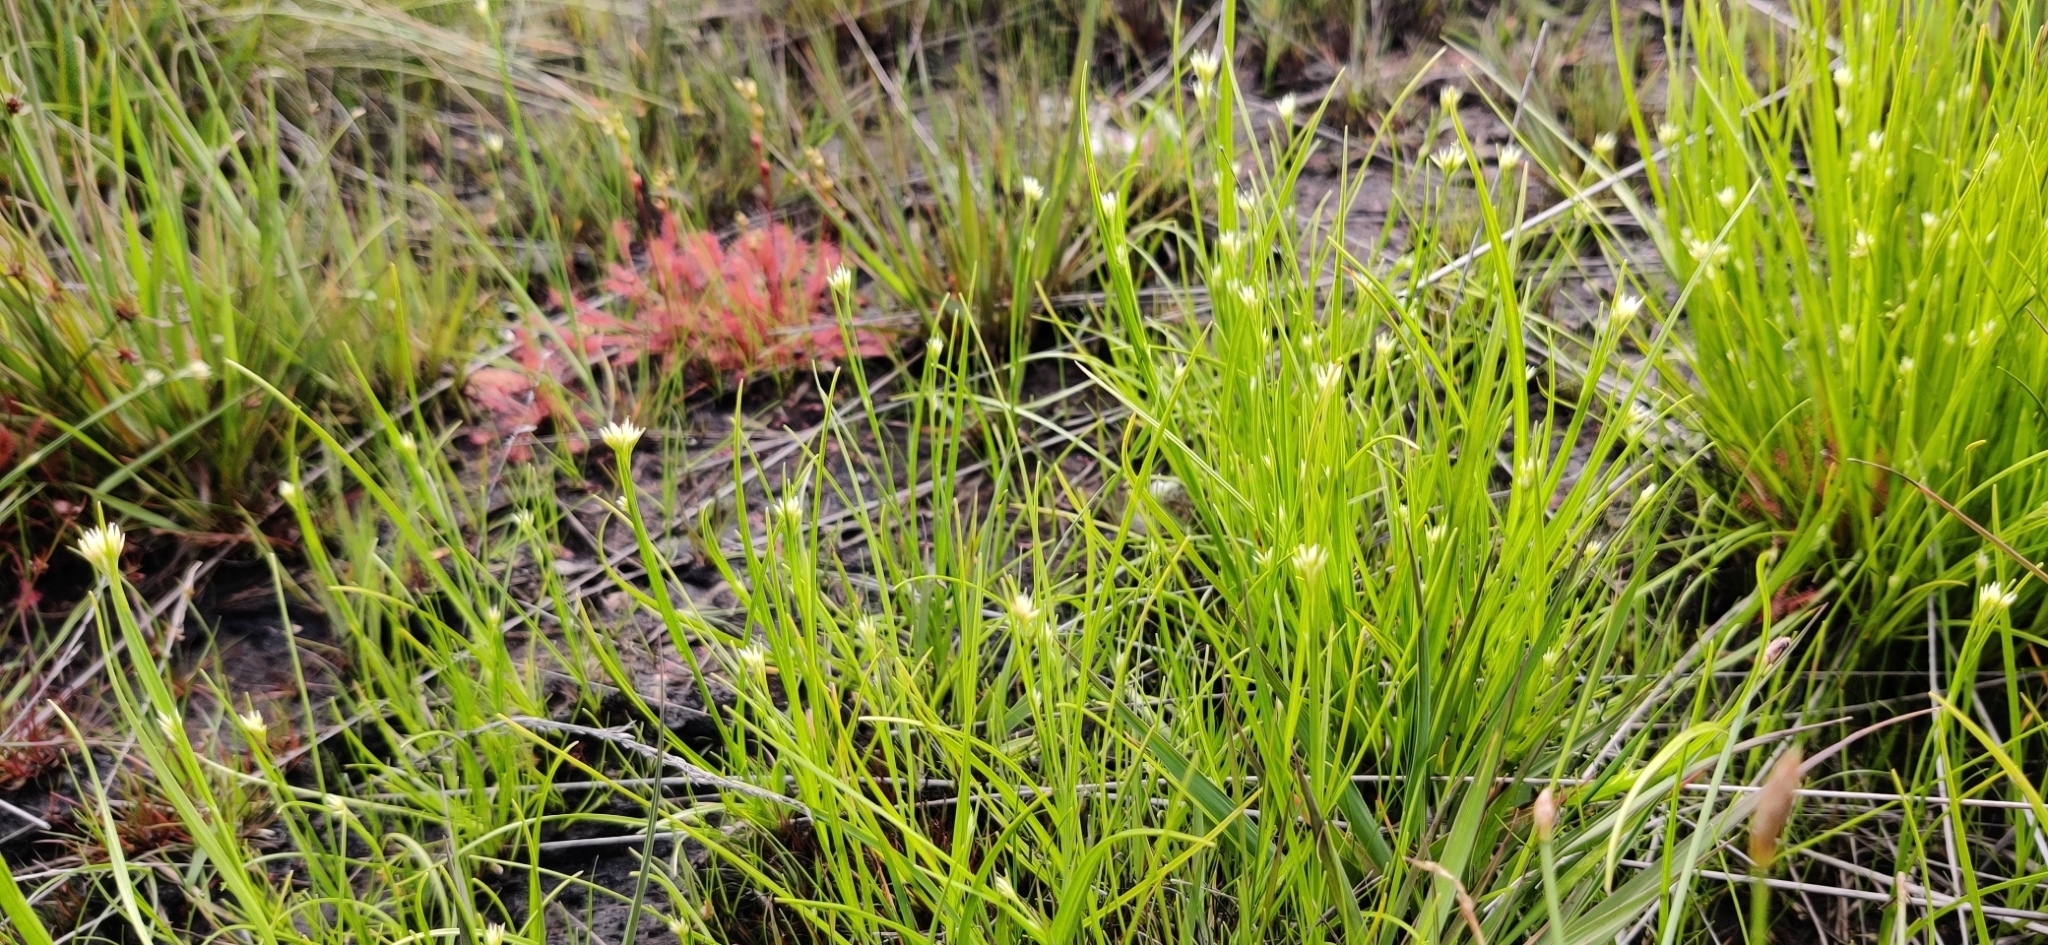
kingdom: Plantae
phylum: Tracheophyta
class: Liliopsida
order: Poales
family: Cyperaceae
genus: Rhynchospora
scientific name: Rhynchospora alba
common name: White beak-sedge
